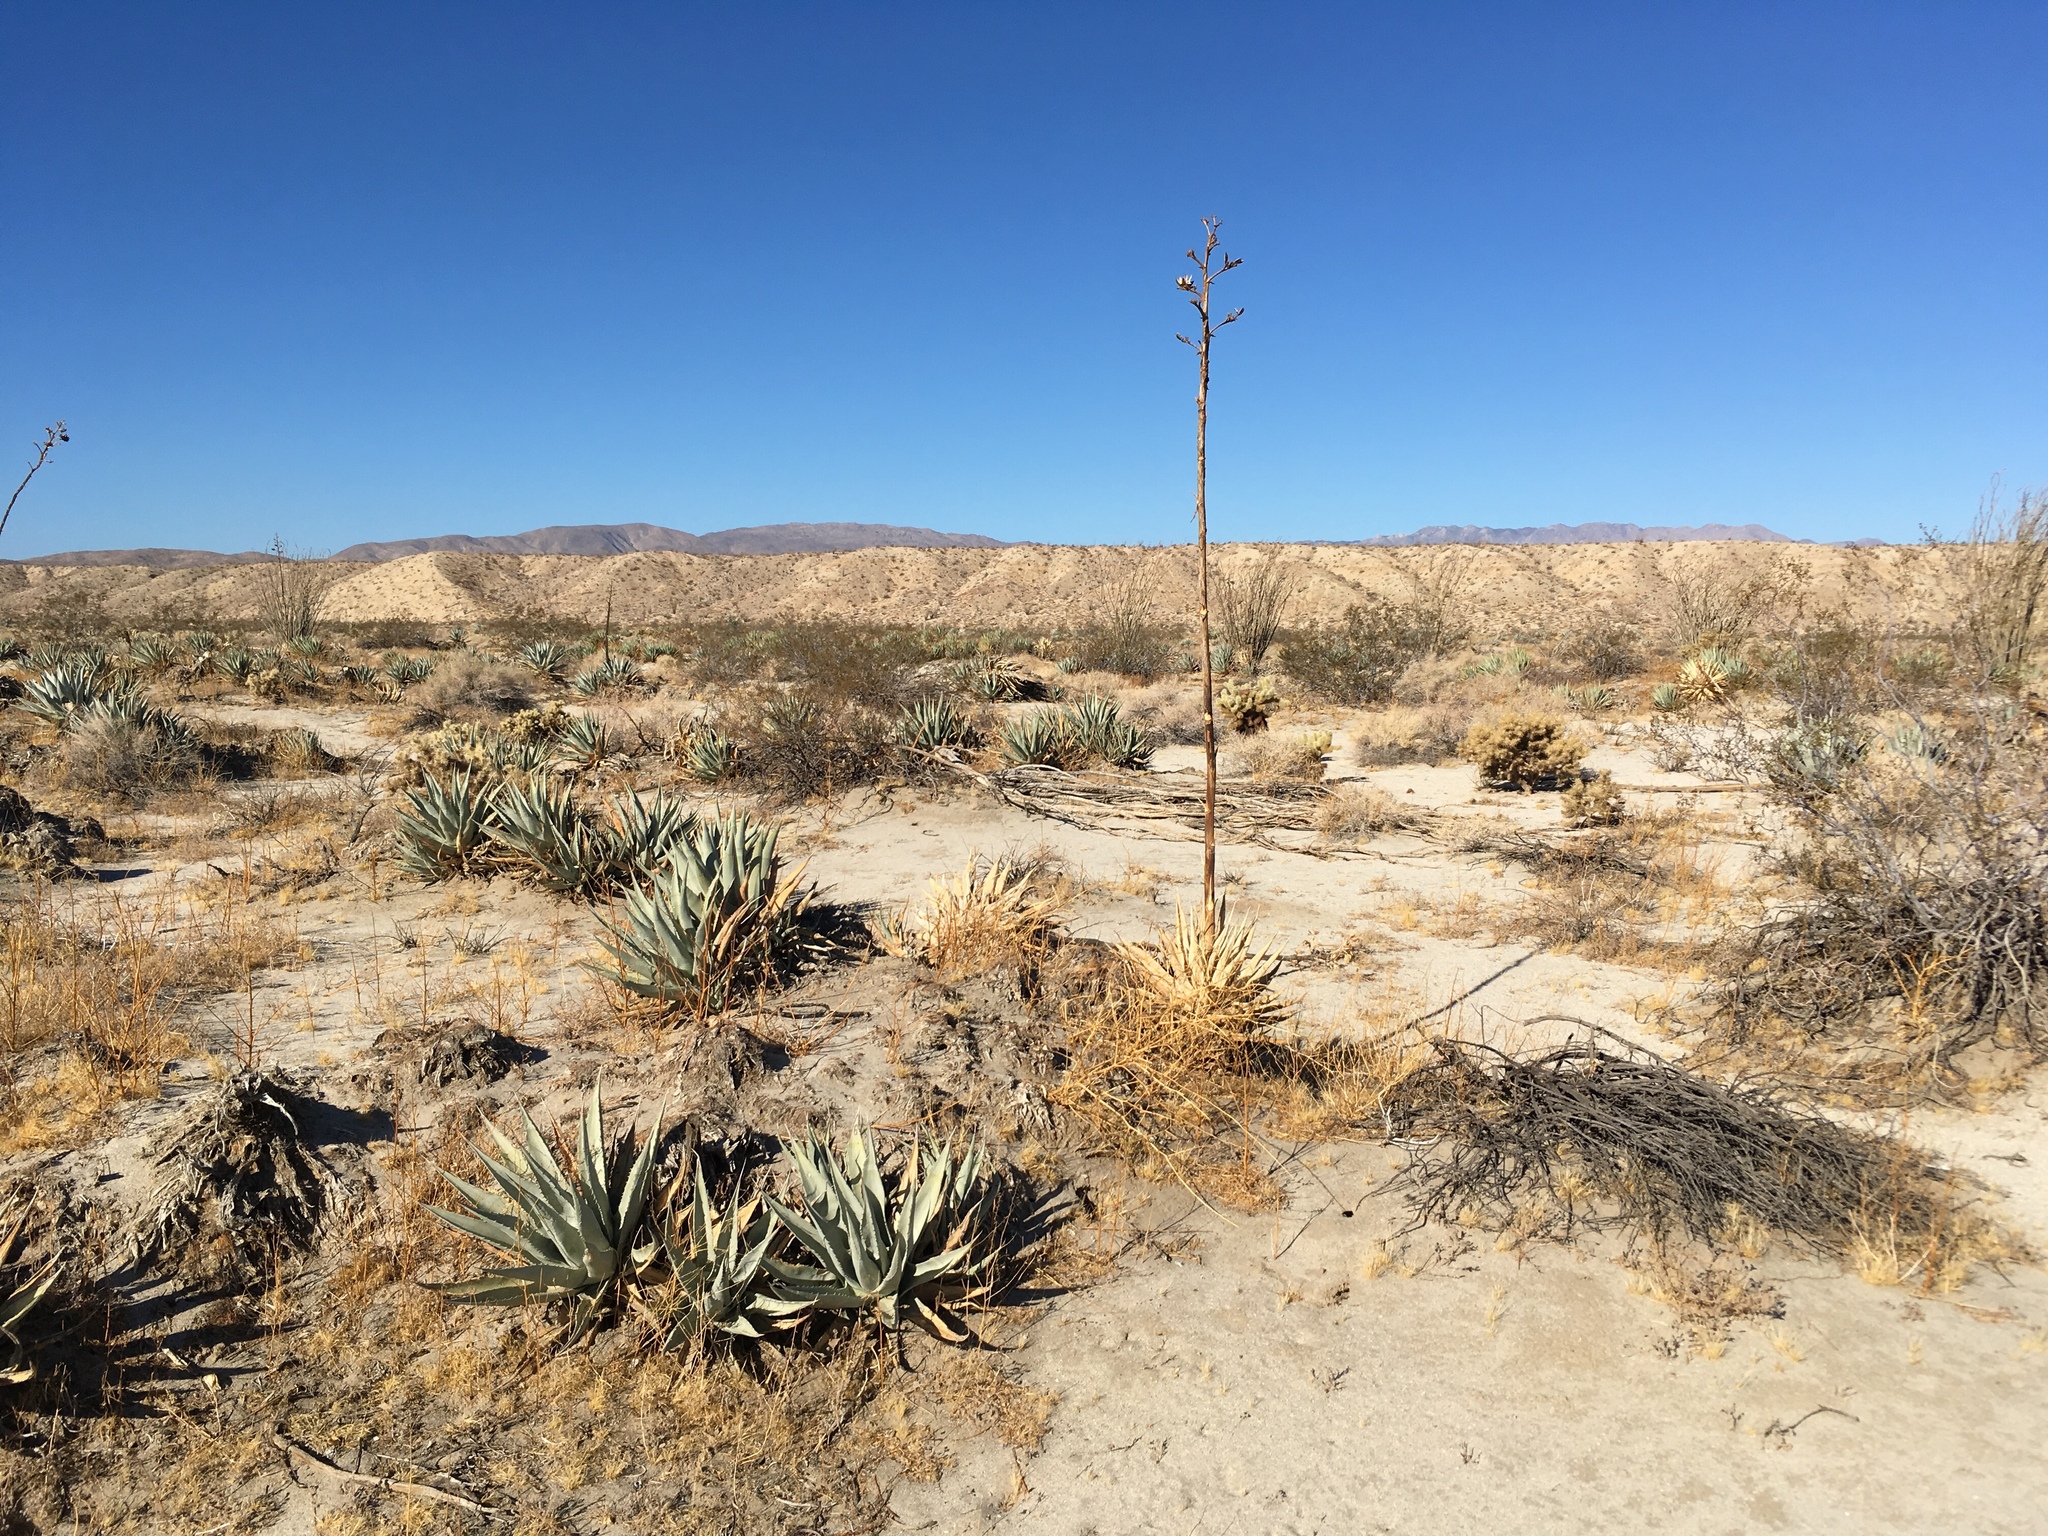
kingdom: Plantae
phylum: Tracheophyta
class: Liliopsida
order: Asparagales
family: Asparagaceae
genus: Agave
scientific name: Agave deserti
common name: Desert agave
